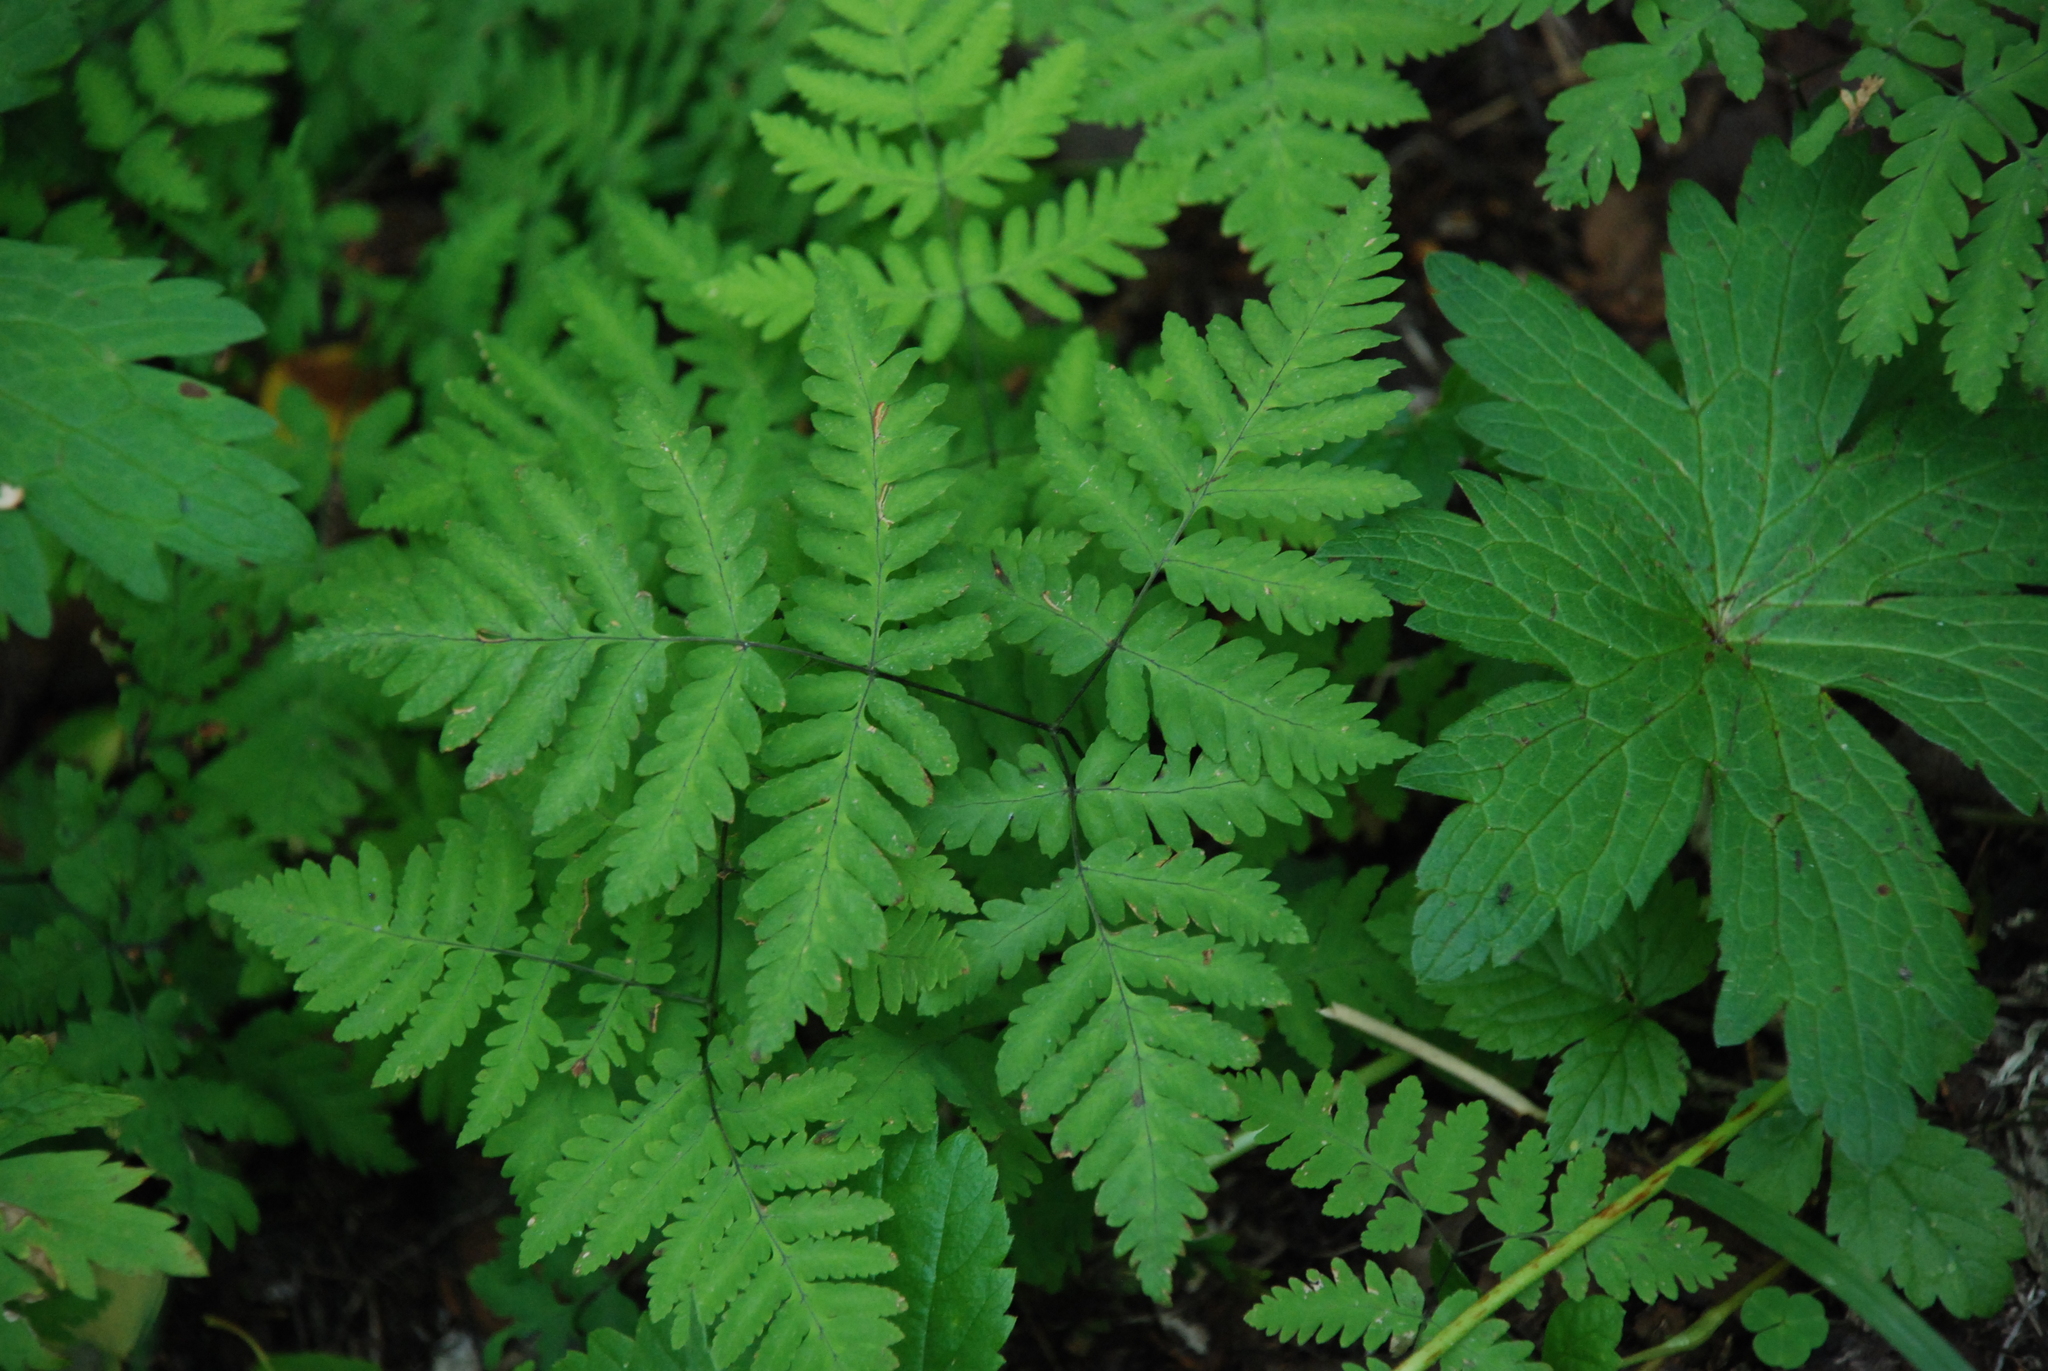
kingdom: Plantae
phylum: Tracheophyta
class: Polypodiopsida
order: Polypodiales
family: Cystopteridaceae
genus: Gymnocarpium
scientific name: Gymnocarpium dryopteris
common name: Oak fern
